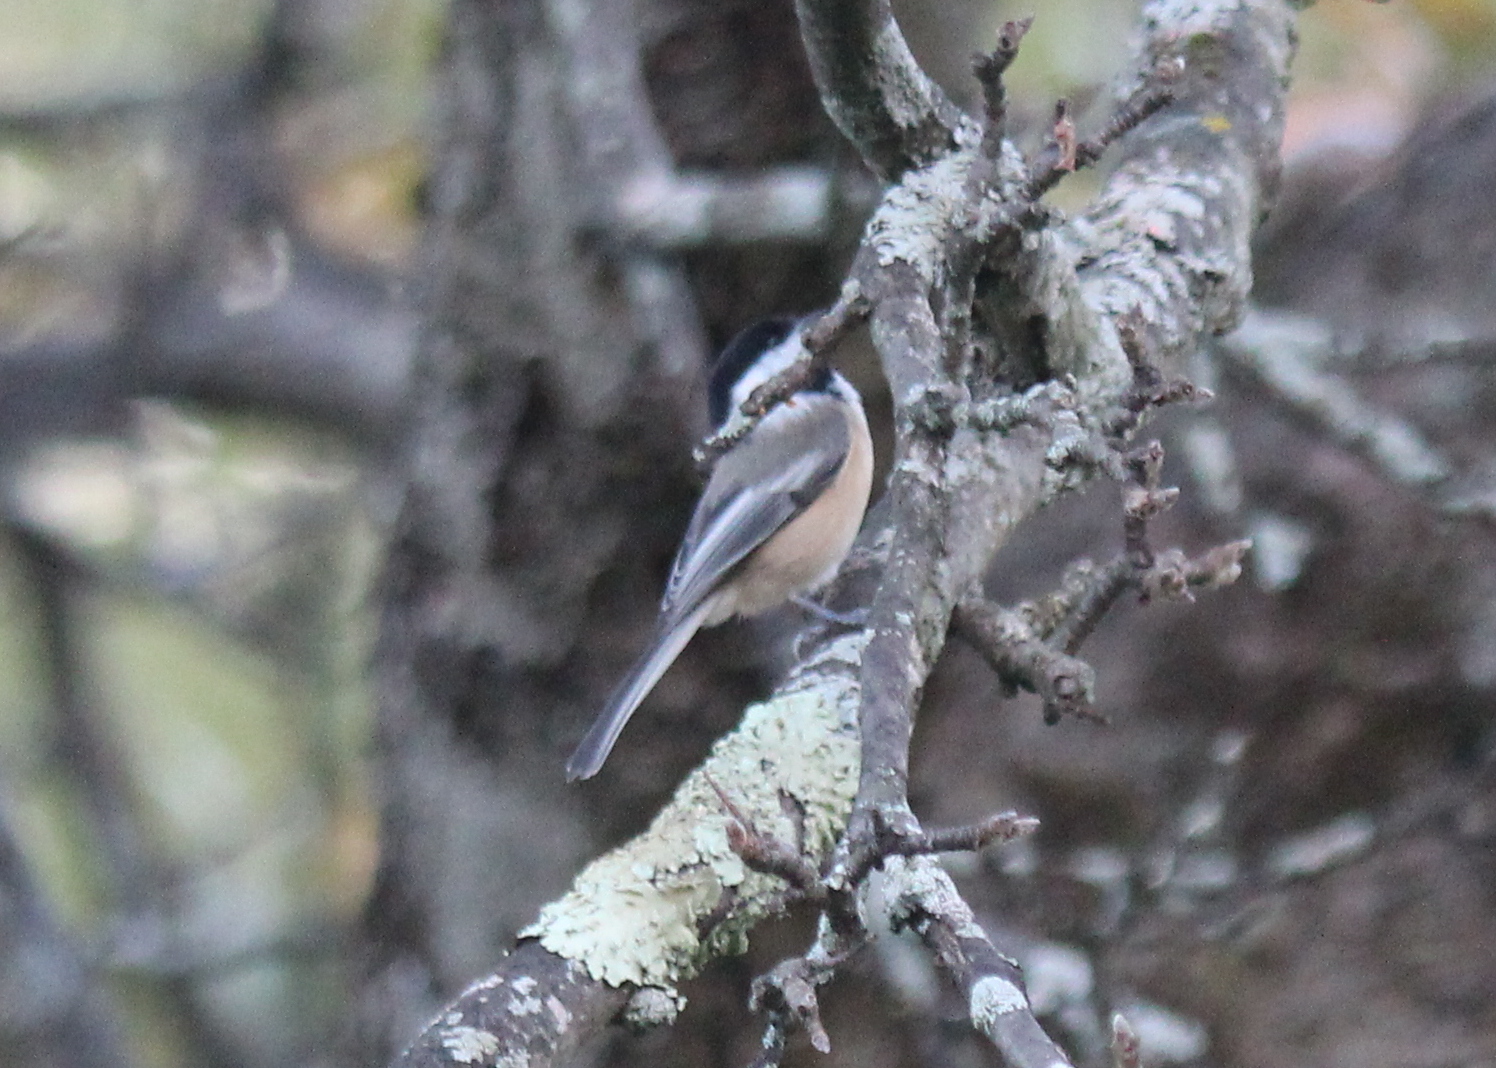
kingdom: Animalia
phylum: Chordata
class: Aves
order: Passeriformes
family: Paridae
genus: Poecile
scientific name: Poecile atricapillus
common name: Black-capped chickadee
